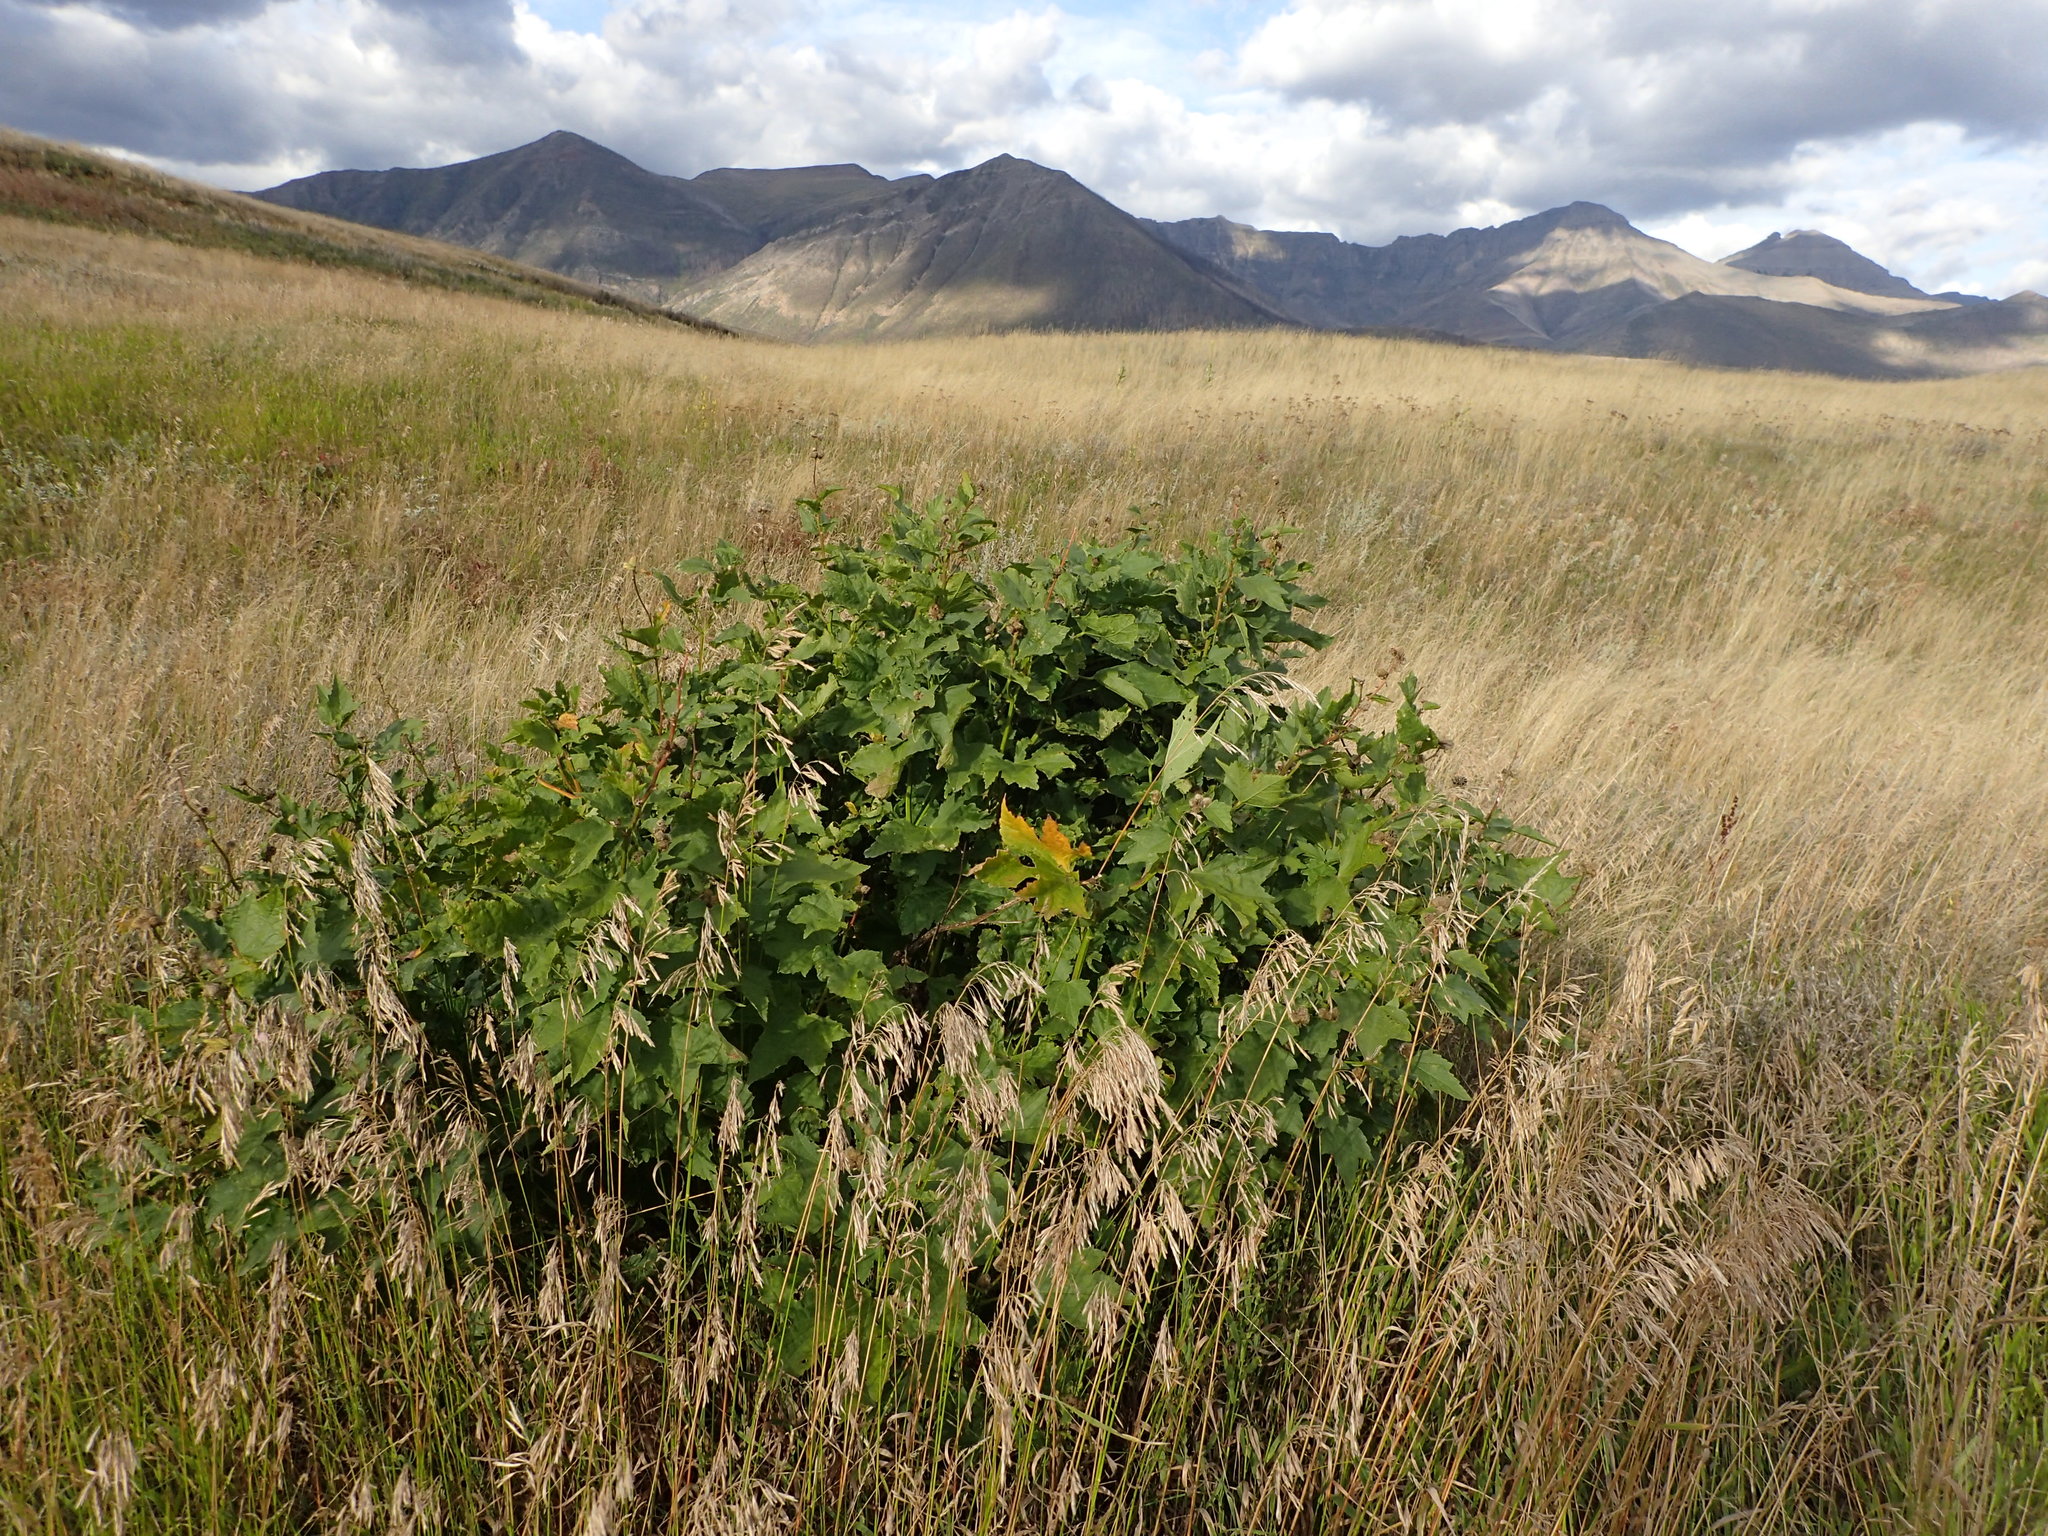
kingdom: Plantae
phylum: Tracheophyta
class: Magnoliopsida
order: Malvales
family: Malvaceae
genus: Iliamna
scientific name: Iliamna rivularis
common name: Wild hollyhock
